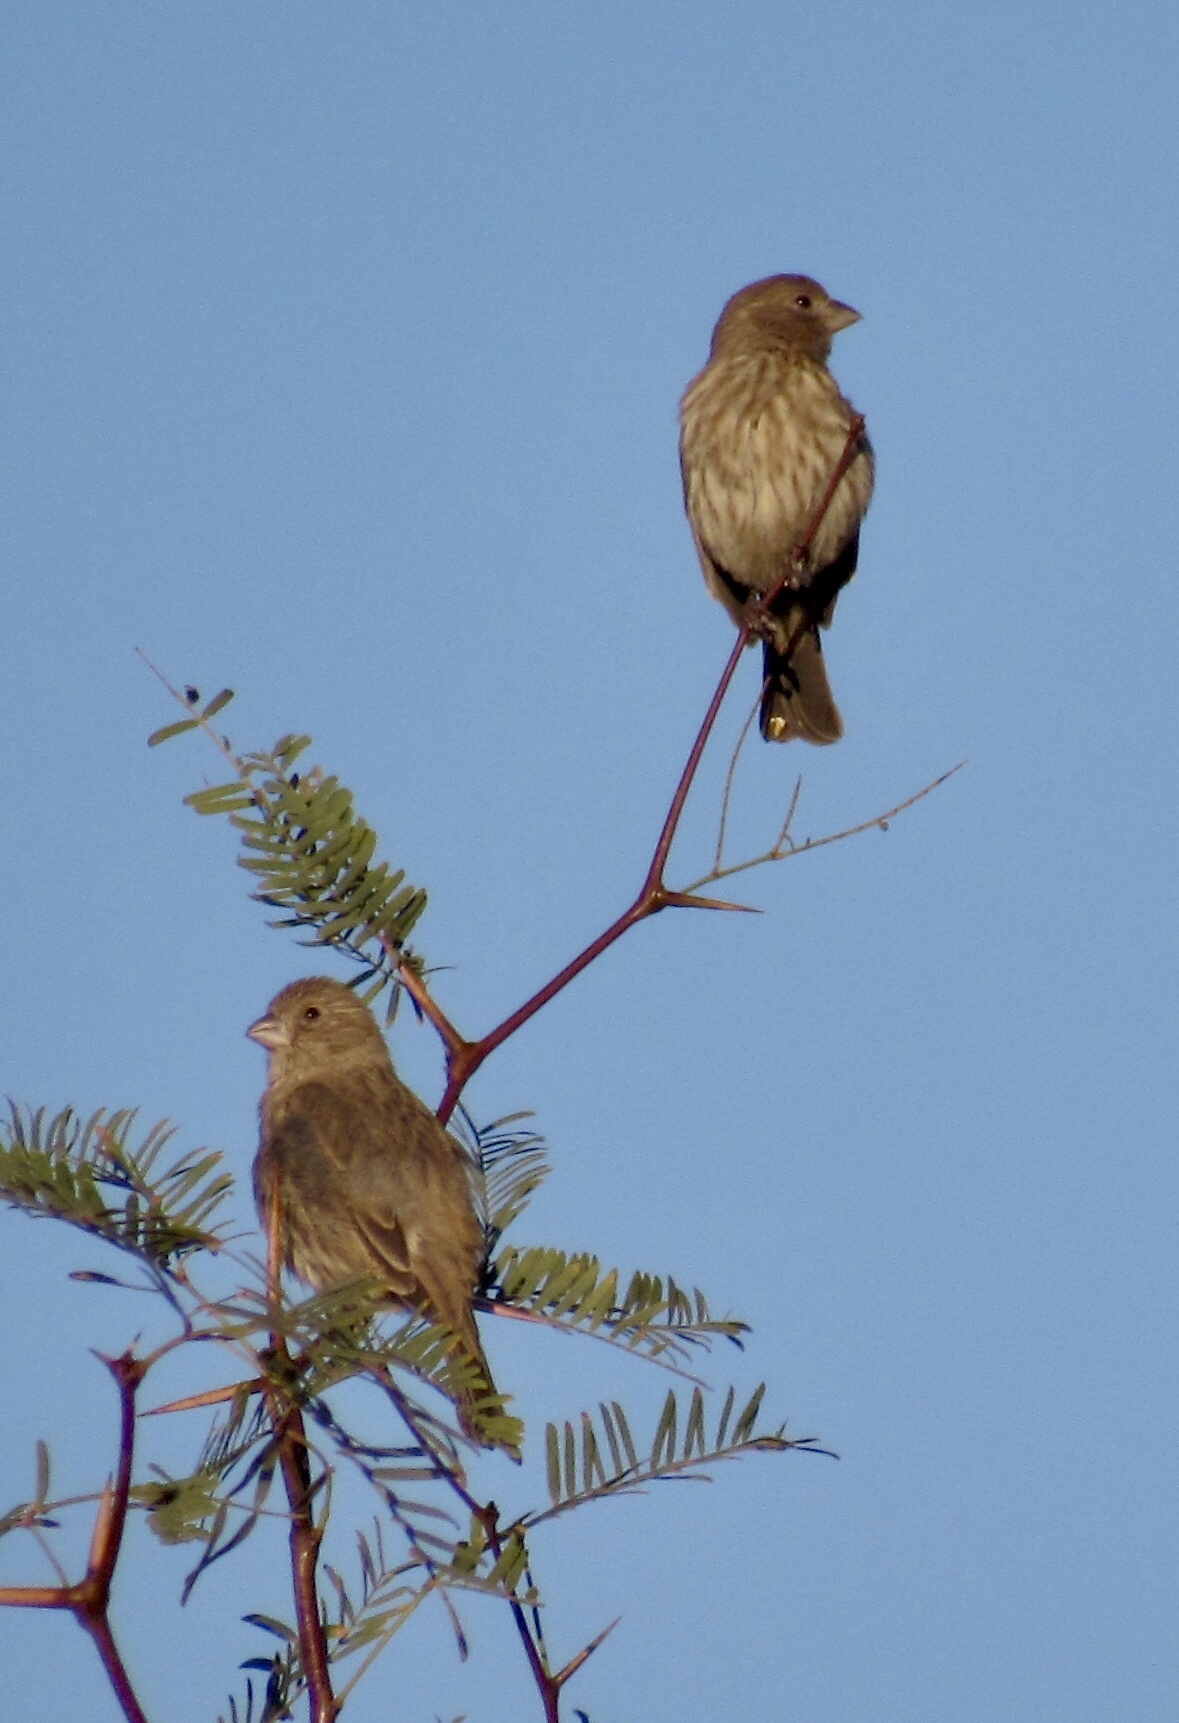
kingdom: Animalia
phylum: Chordata
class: Aves
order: Passeriformes
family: Fringillidae
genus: Haemorhous
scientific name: Haemorhous mexicanus
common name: House finch
